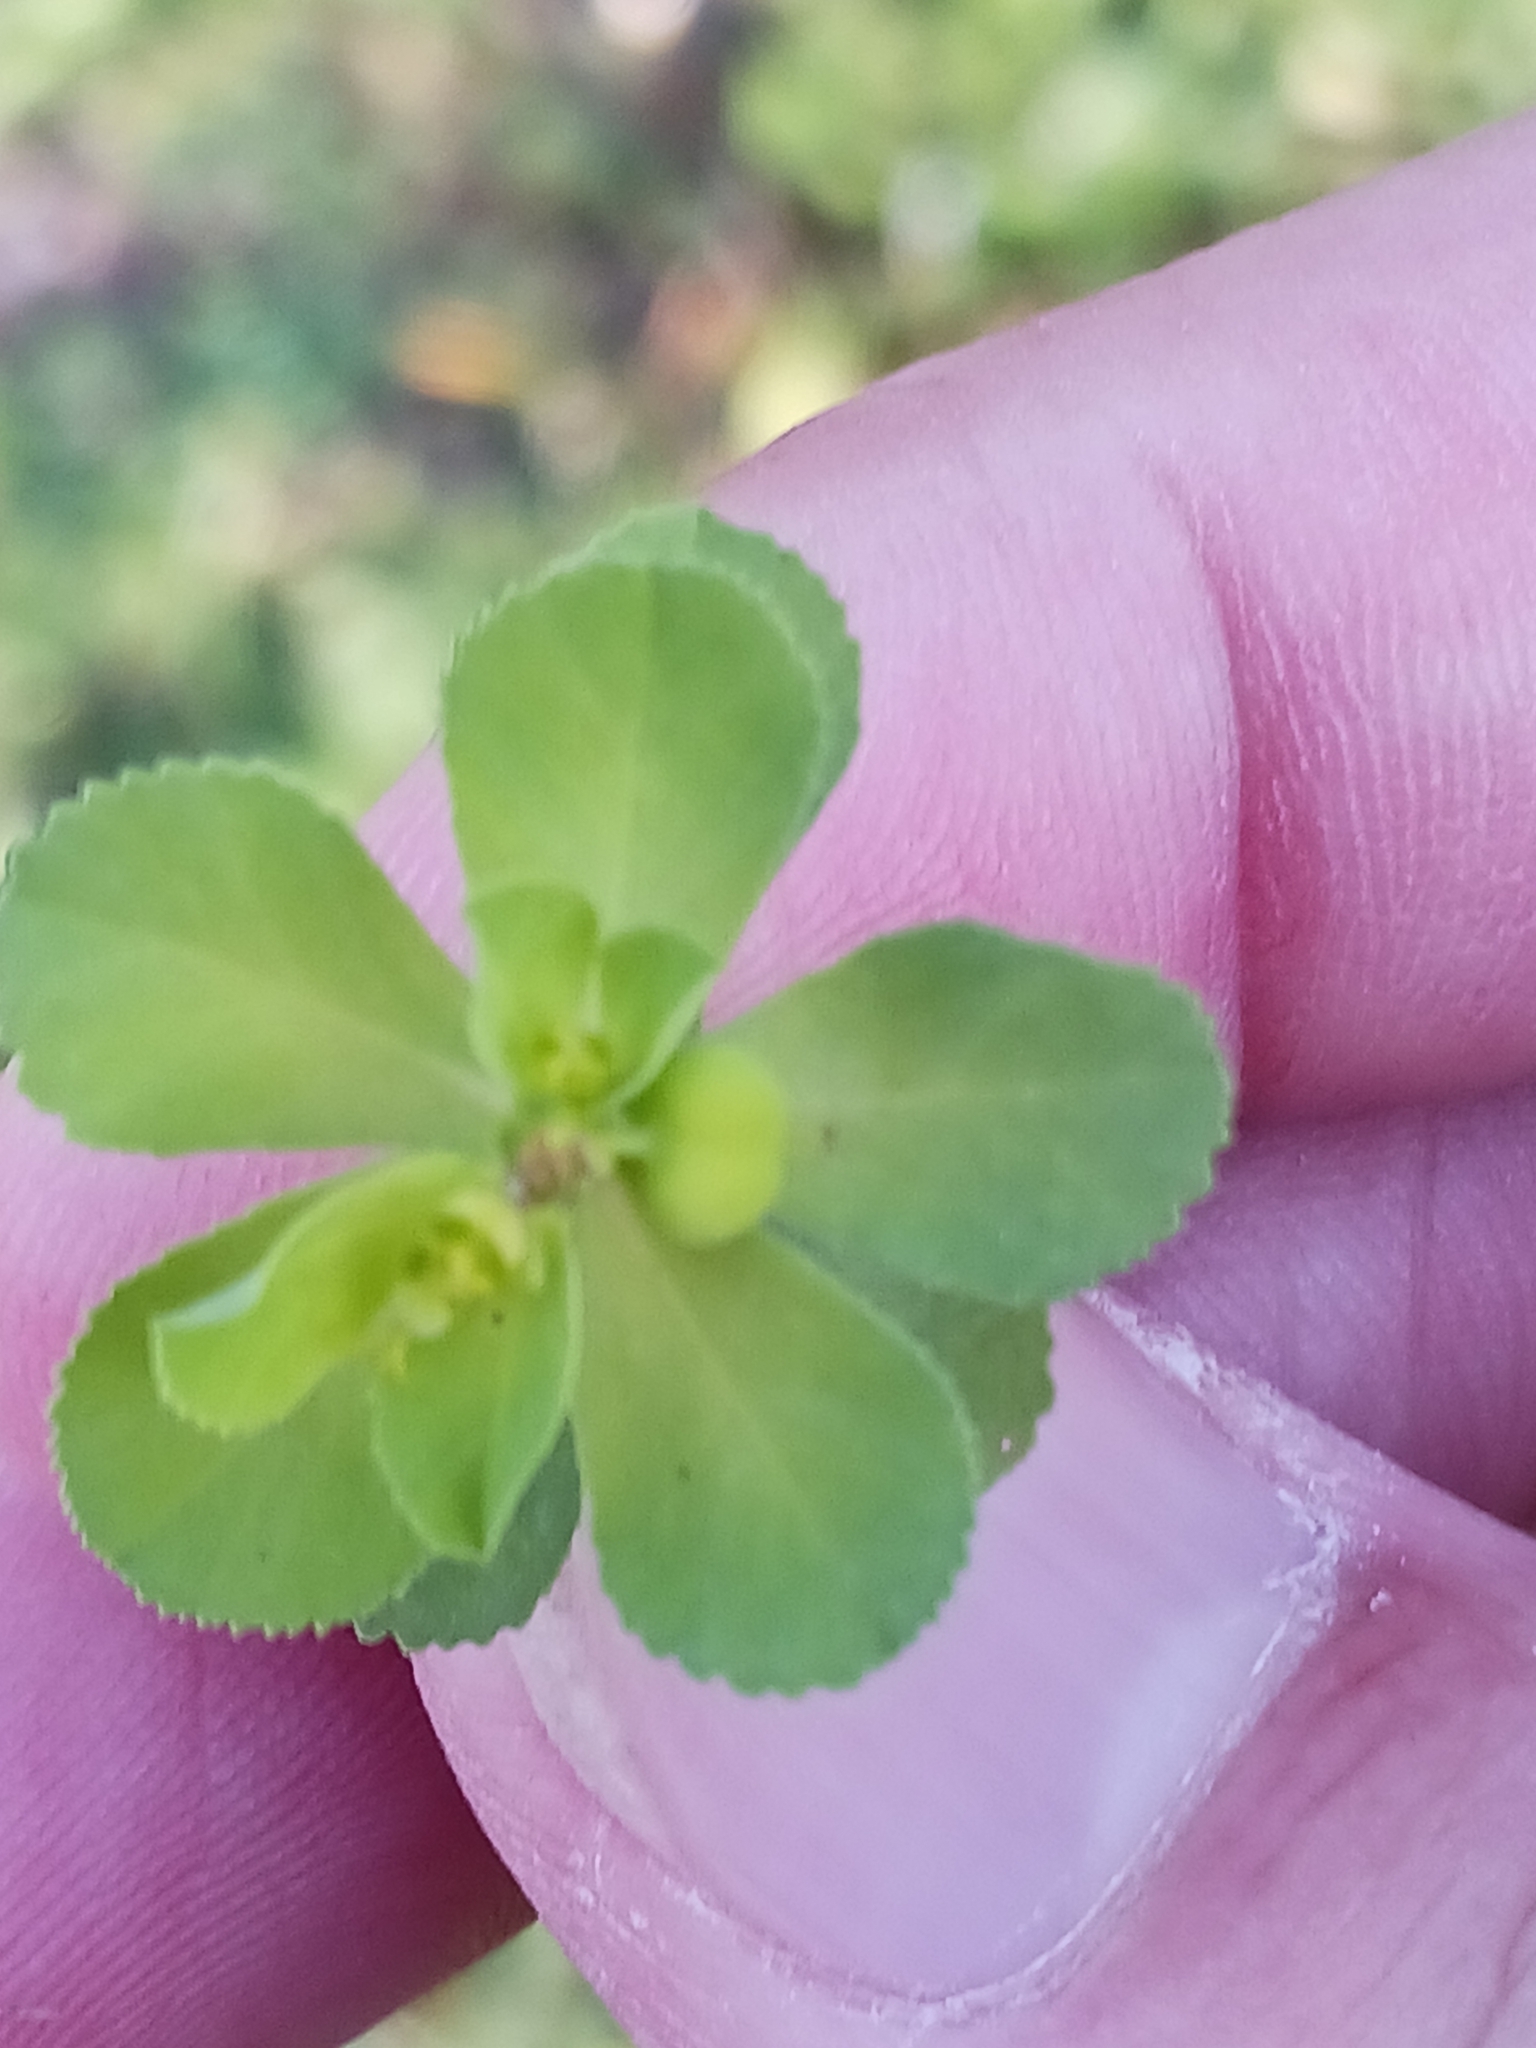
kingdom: Plantae
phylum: Tracheophyta
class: Magnoliopsida
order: Malpighiales
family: Euphorbiaceae
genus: Euphorbia
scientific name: Euphorbia helioscopia
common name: Sun spurge
